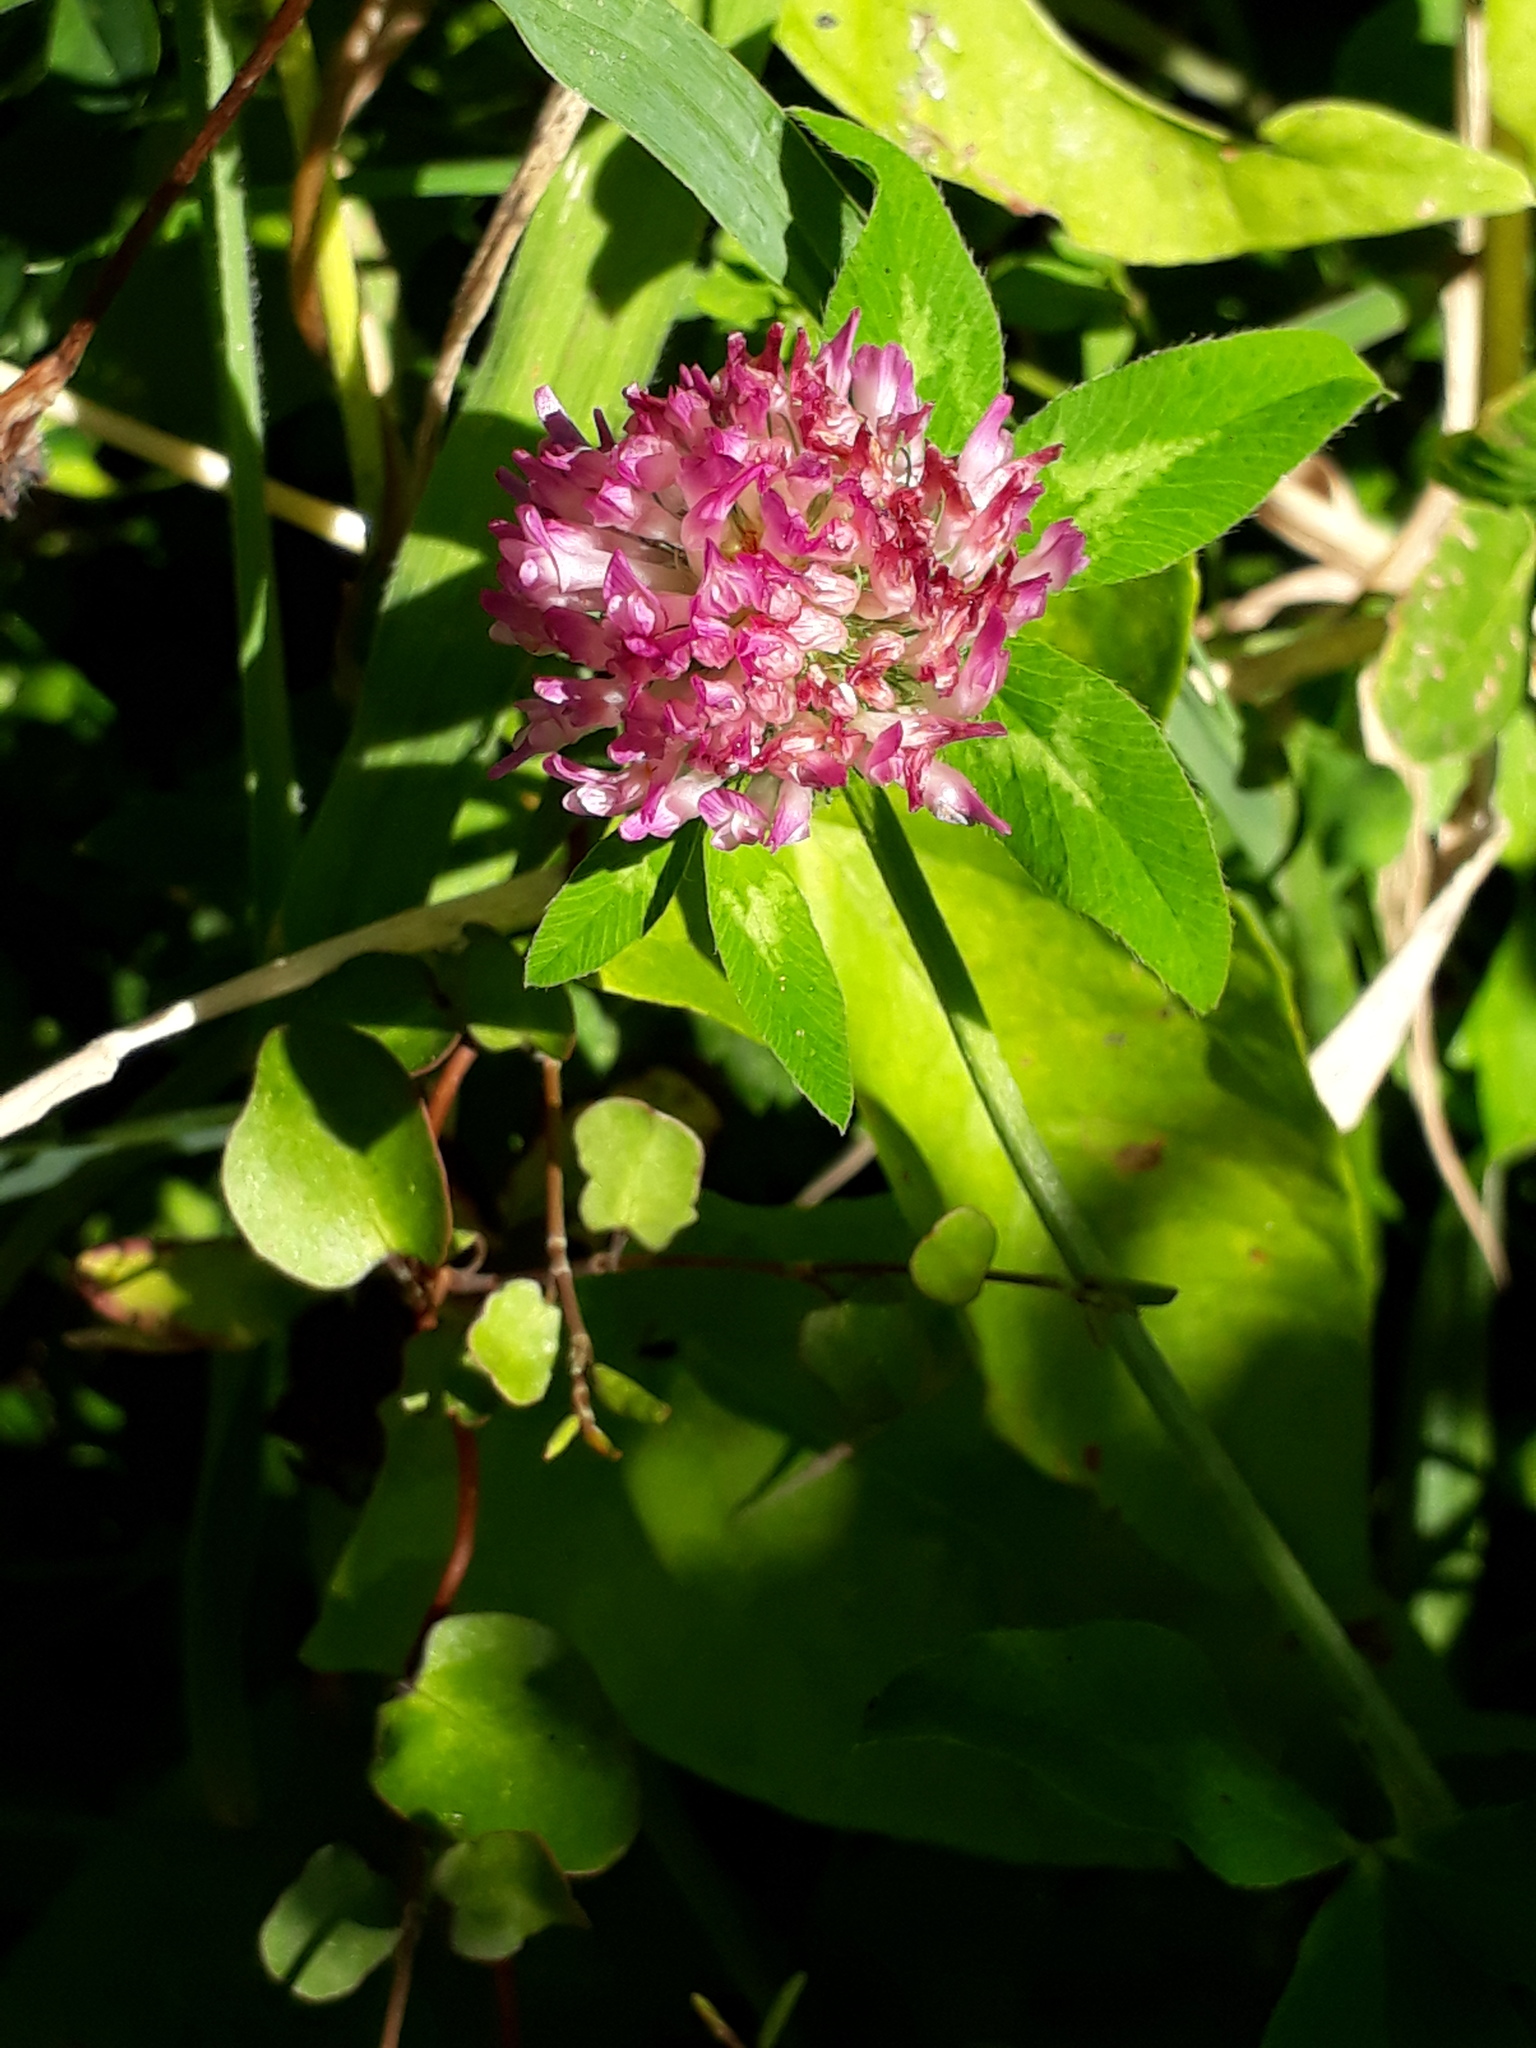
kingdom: Plantae
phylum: Tracheophyta
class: Magnoliopsida
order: Fabales
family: Fabaceae
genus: Trifolium
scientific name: Trifolium pratense
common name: Red clover
